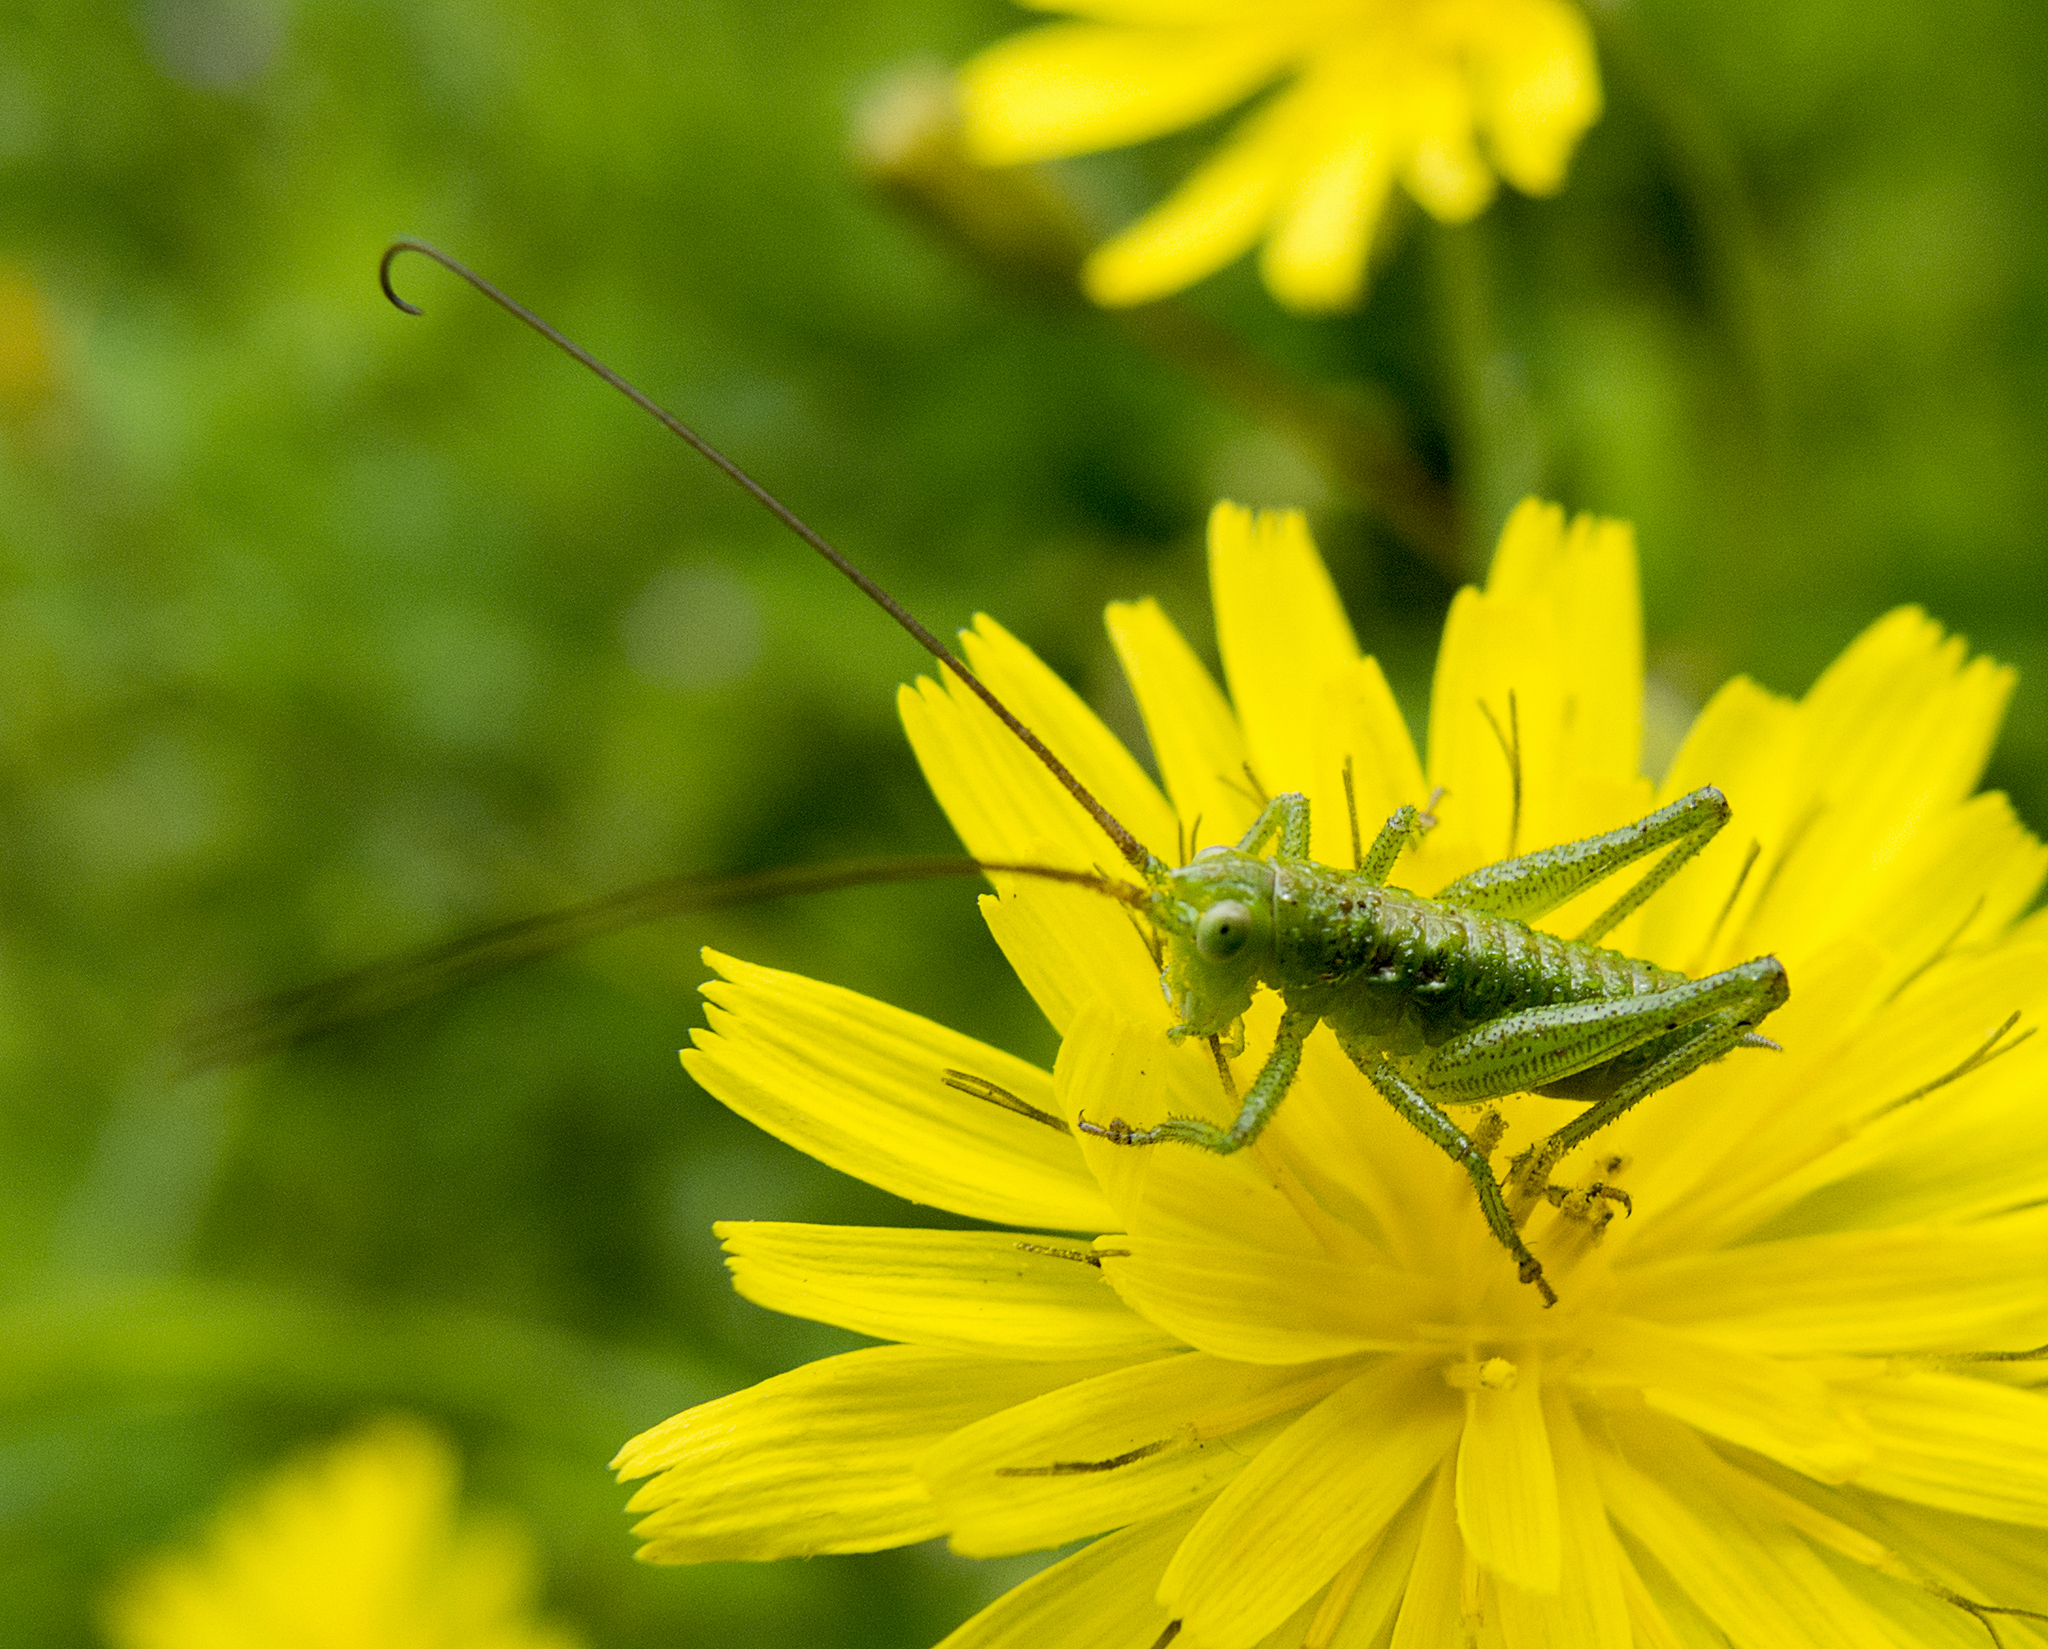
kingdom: Animalia
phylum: Arthropoda
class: Insecta
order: Orthoptera
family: Tettigoniidae
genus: Tettigonia
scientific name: Tettigonia viridissima
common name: Great green bush-cricket
